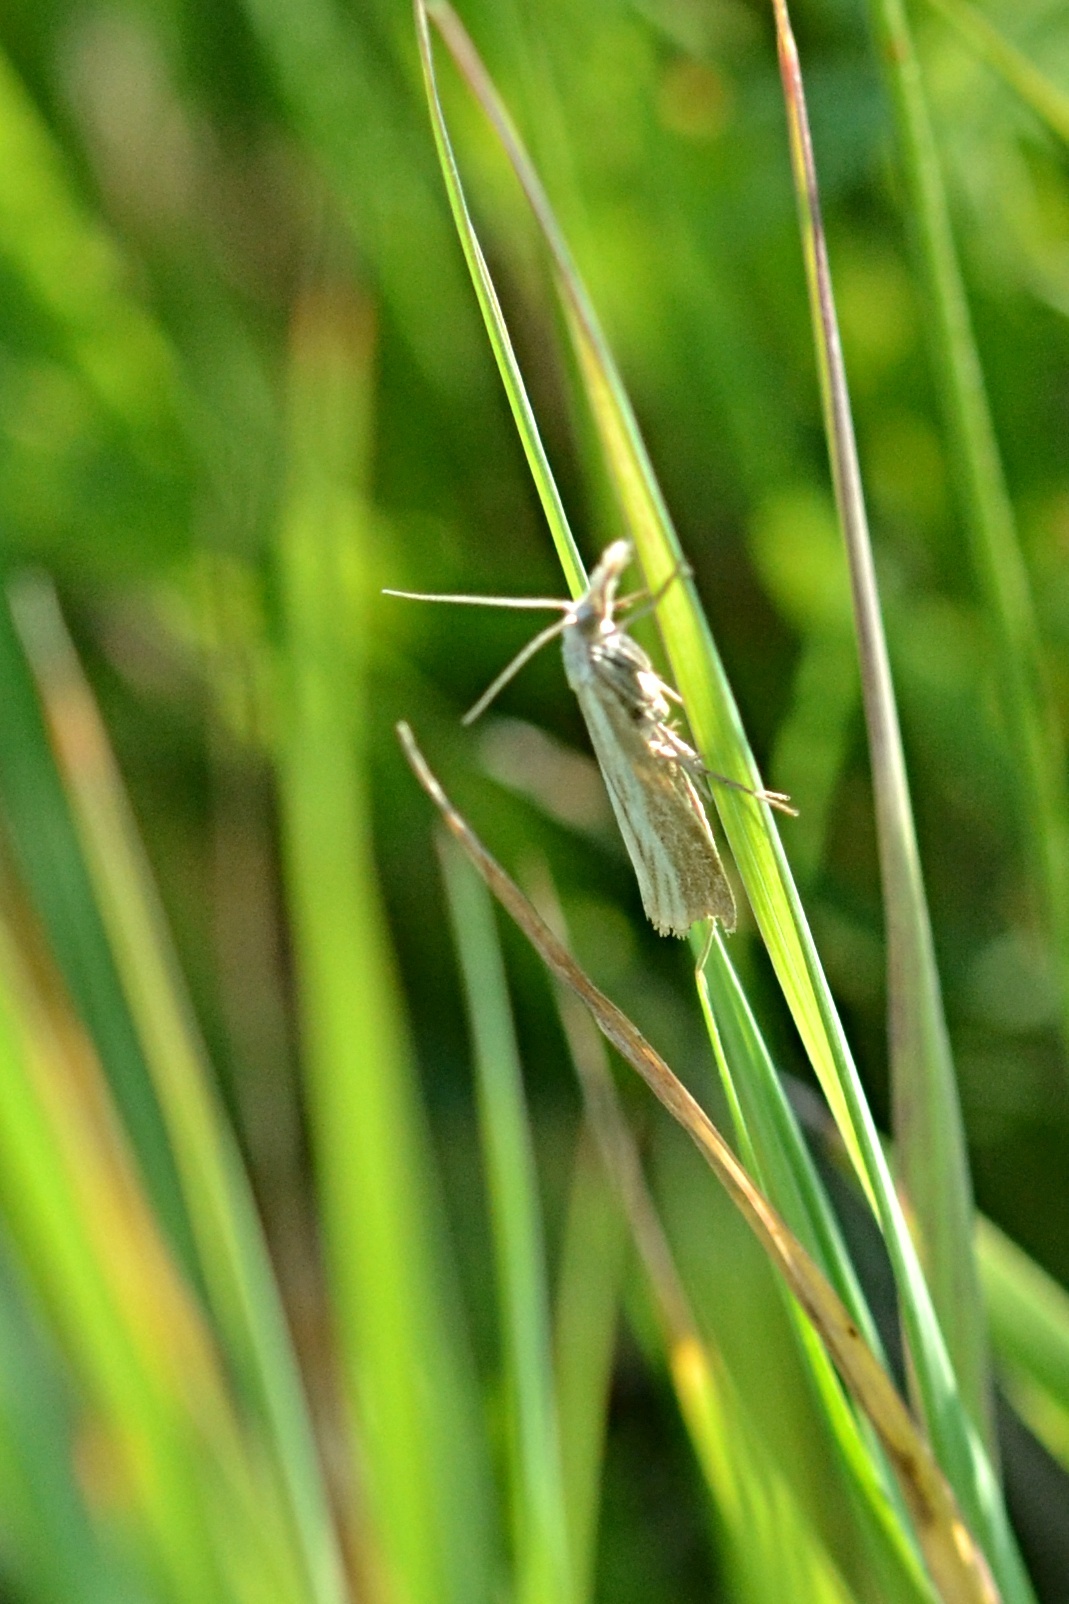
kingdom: Animalia
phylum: Arthropoda
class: Insecta
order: Lepidoptera
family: Crambidae
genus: Agriphila
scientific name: Agriphila straminella
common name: Straw grass-veneer
